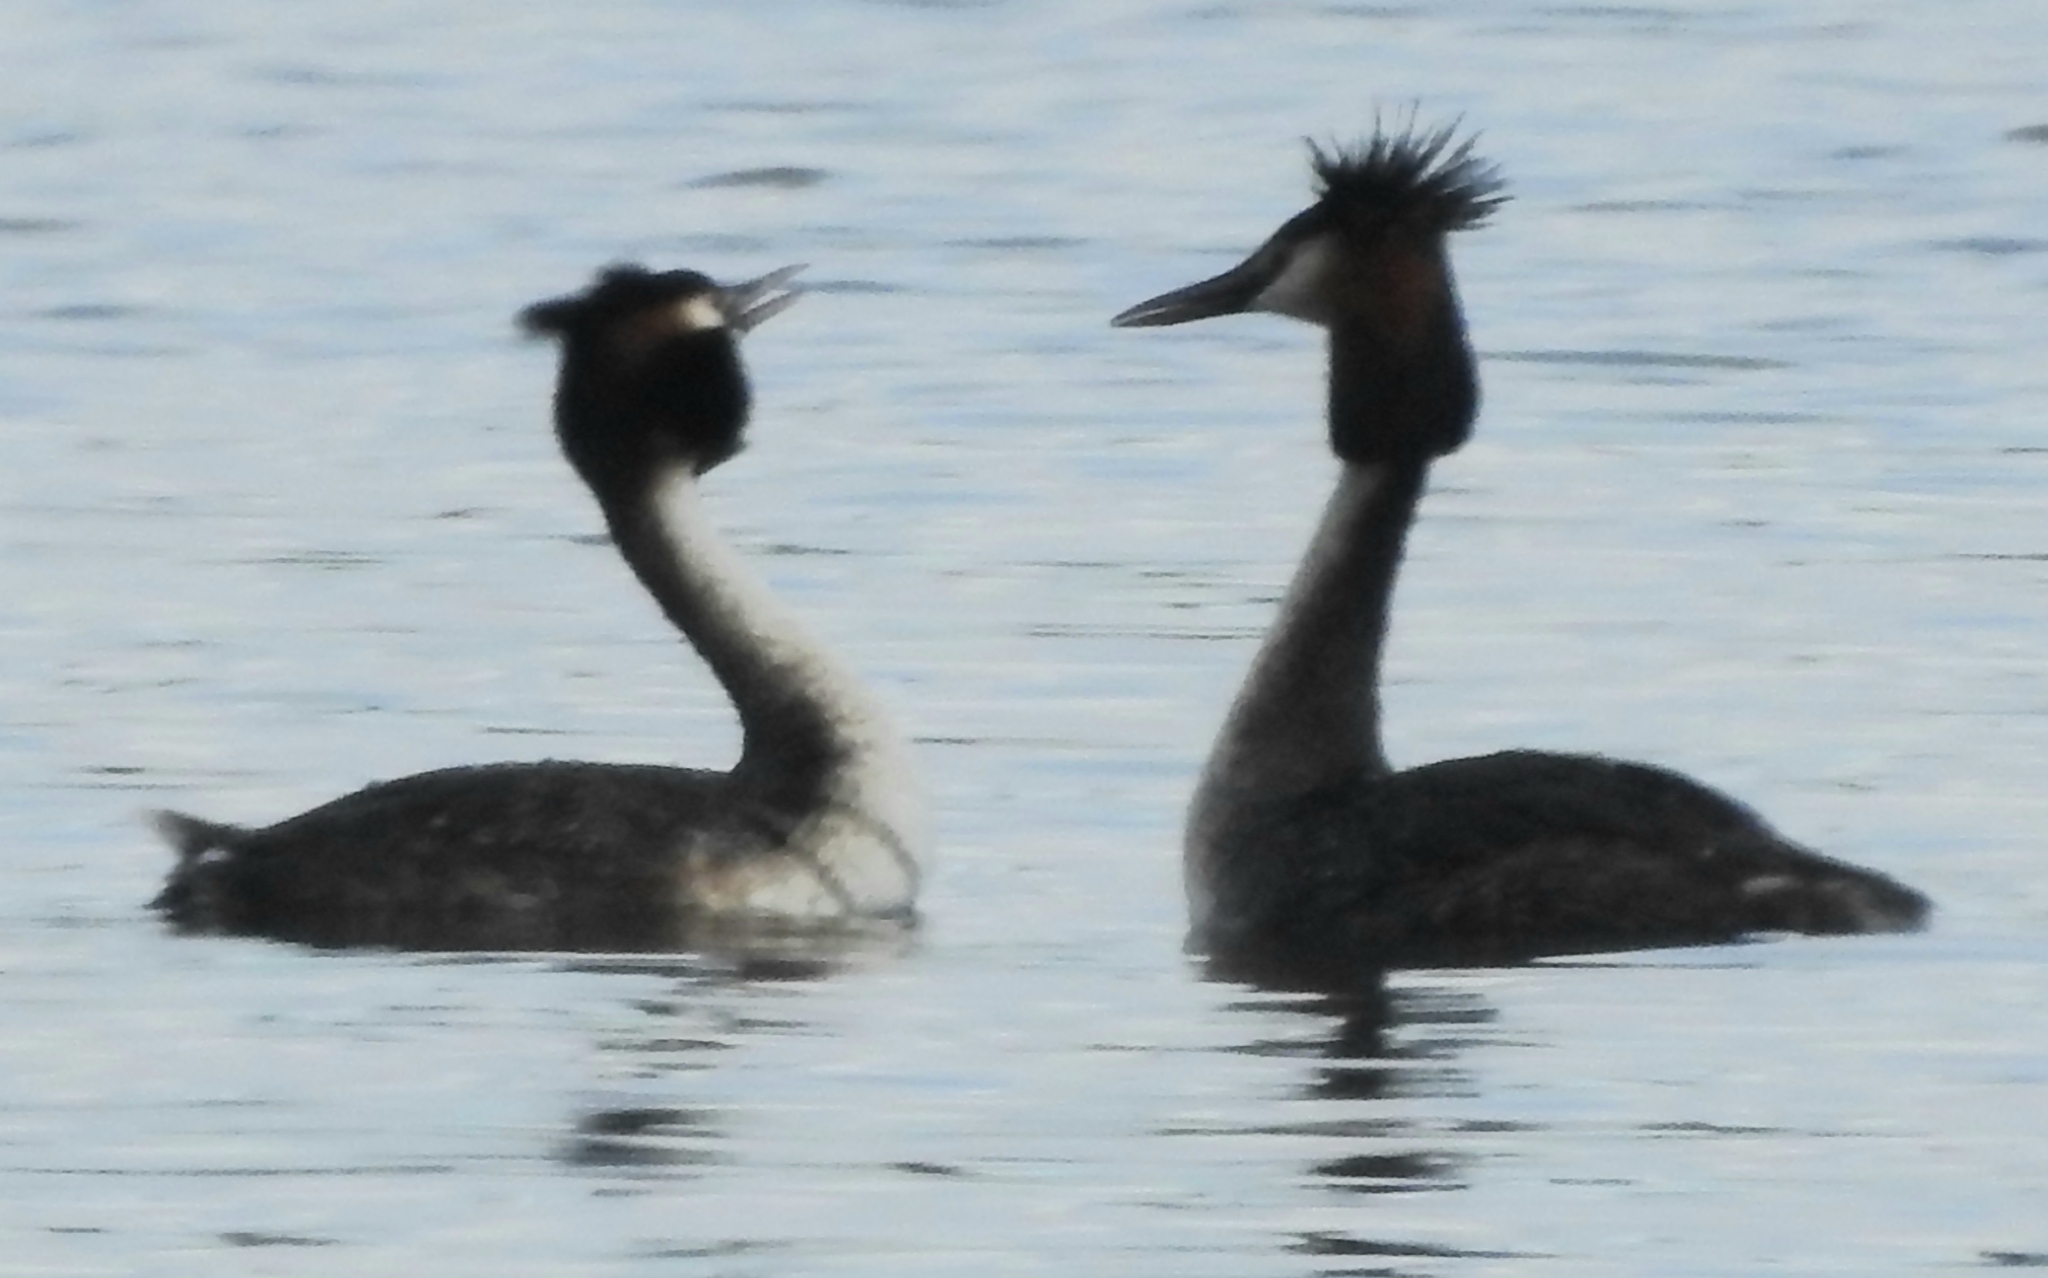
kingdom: Animalia
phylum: Chordata
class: Aves
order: Podicipediformes
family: Podicipedidae
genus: Podiceps
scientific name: Podiceps cristatus
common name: Great crested grebe
